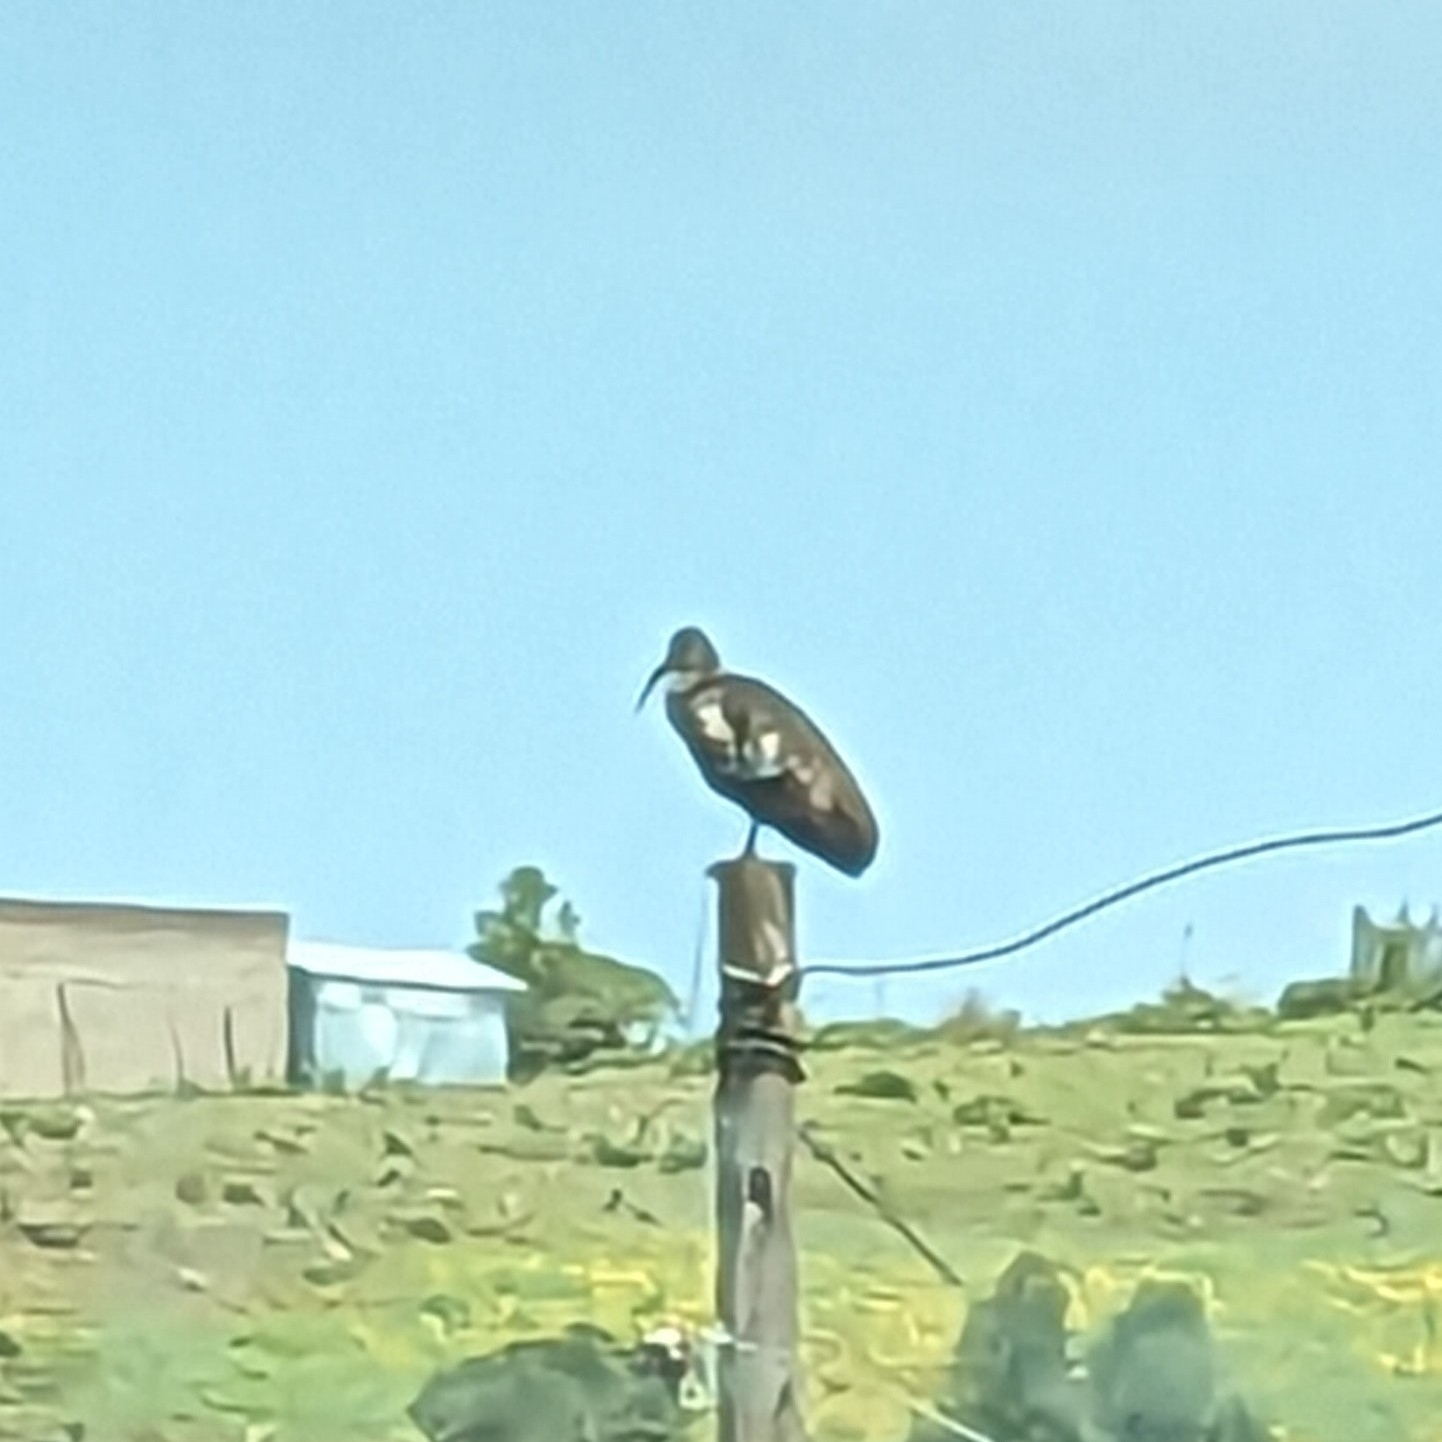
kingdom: Animalia
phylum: Chordata
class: Aves
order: Pelecaniformes
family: Threskiornithidae
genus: Bostrychia
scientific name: Bostrychia carunculata
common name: Wattled ibis
